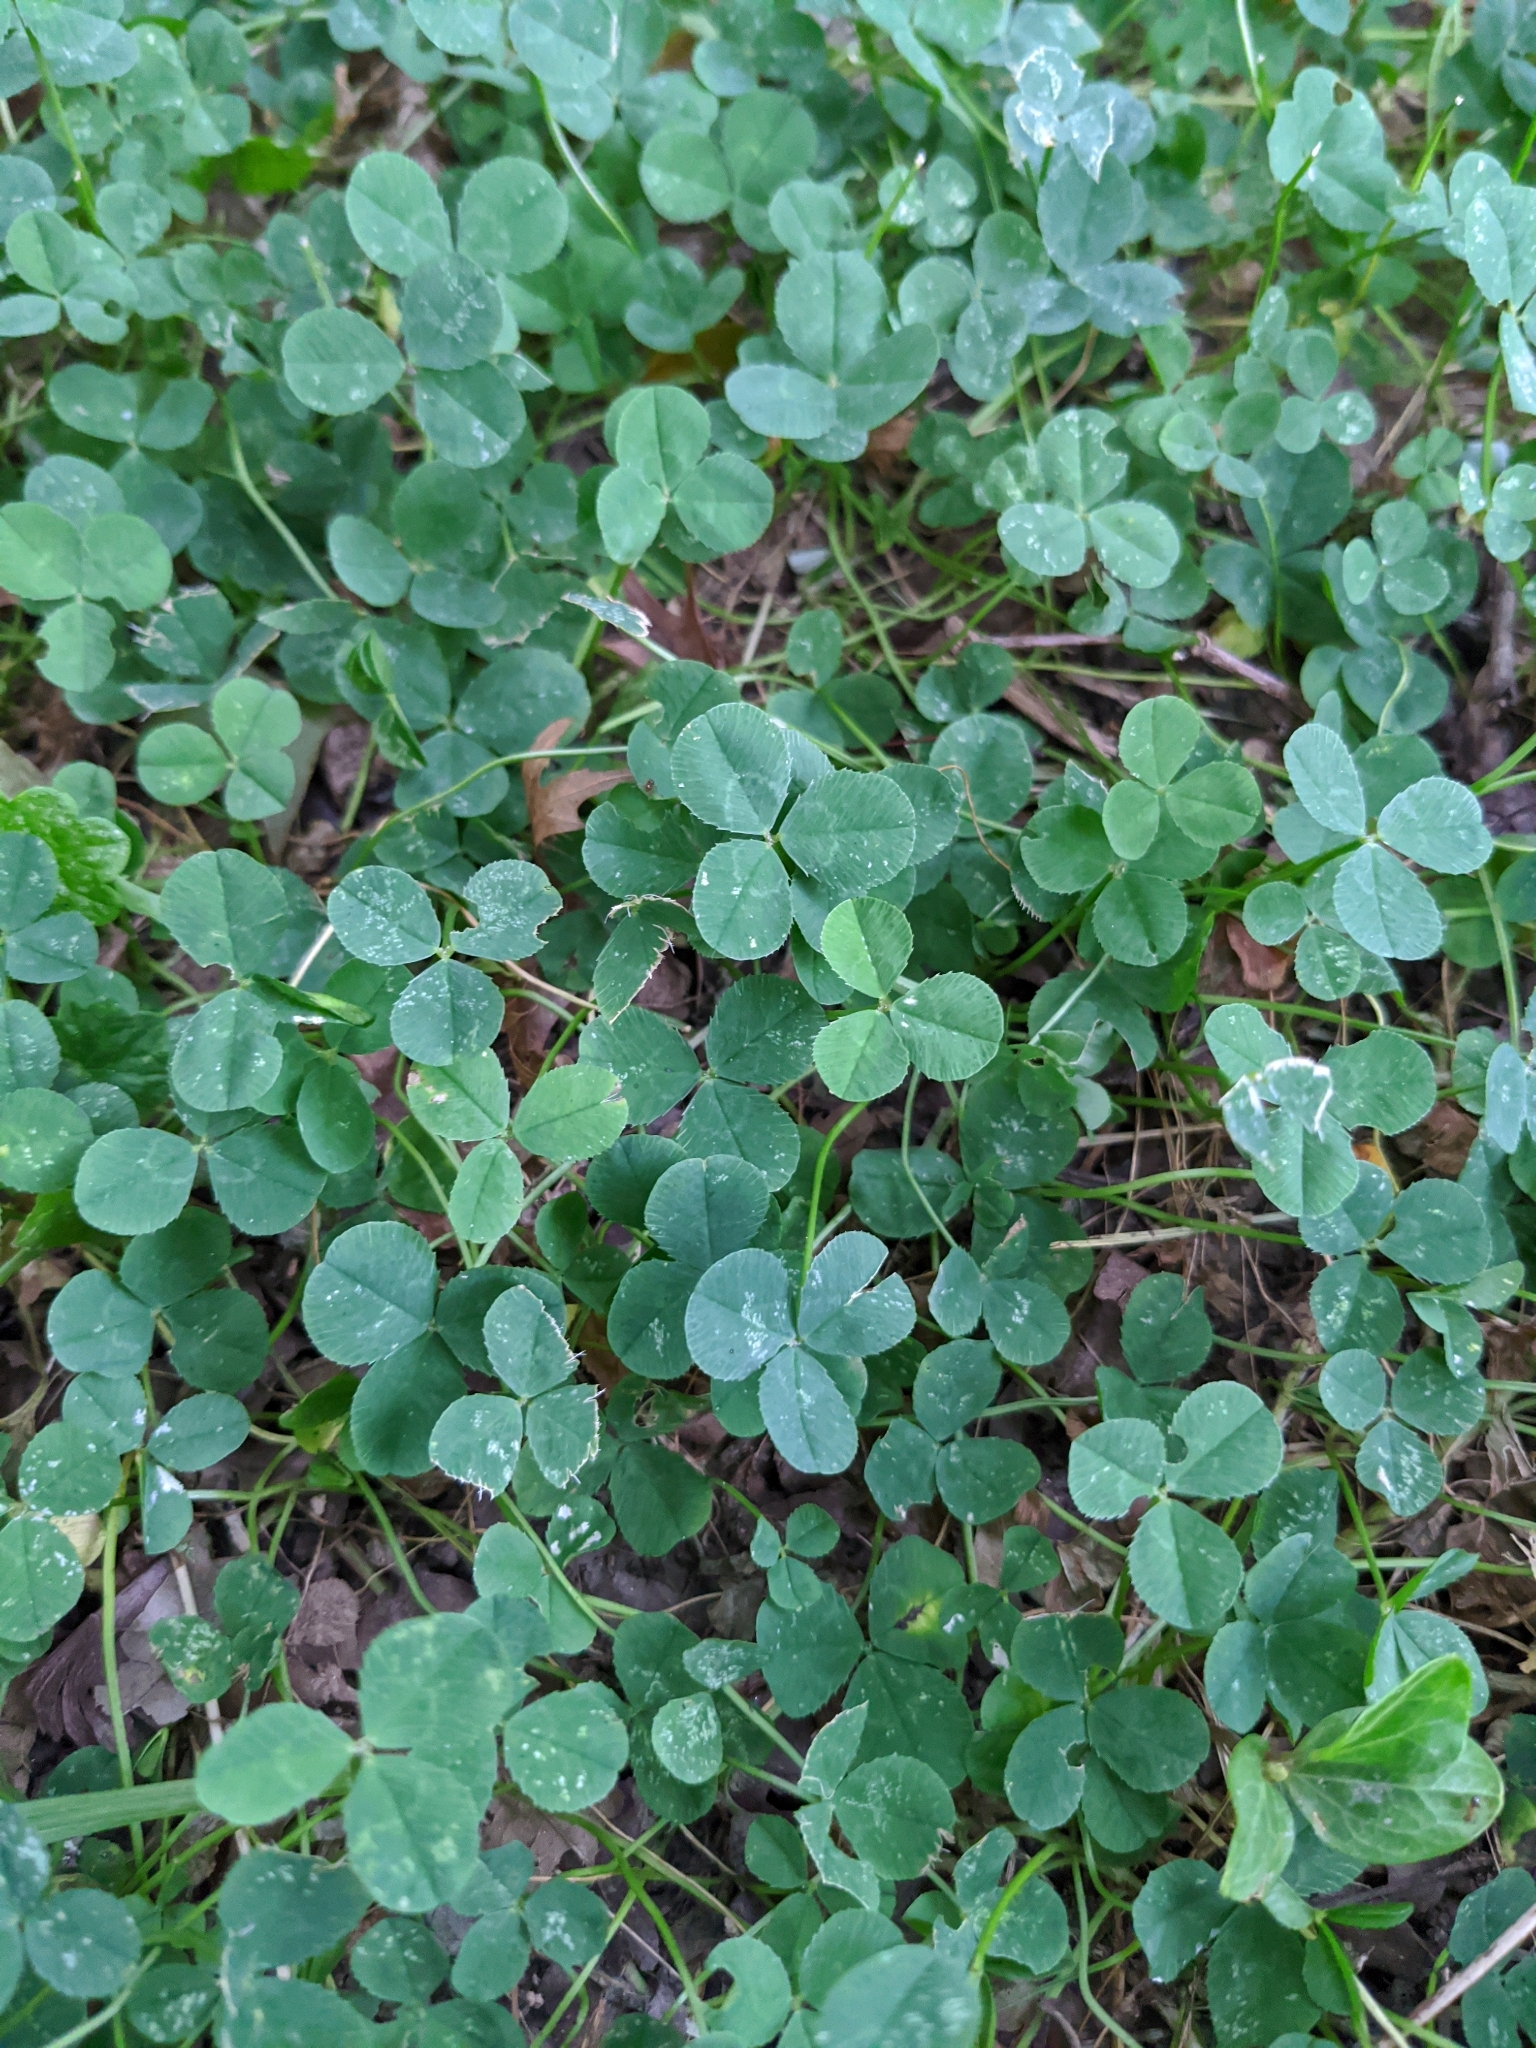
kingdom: Plantae
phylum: Tracheophyta
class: Magnoliopsida
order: Fabales
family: Fabaceae
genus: Trifolium
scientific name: Trifolium repens
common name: White clover
